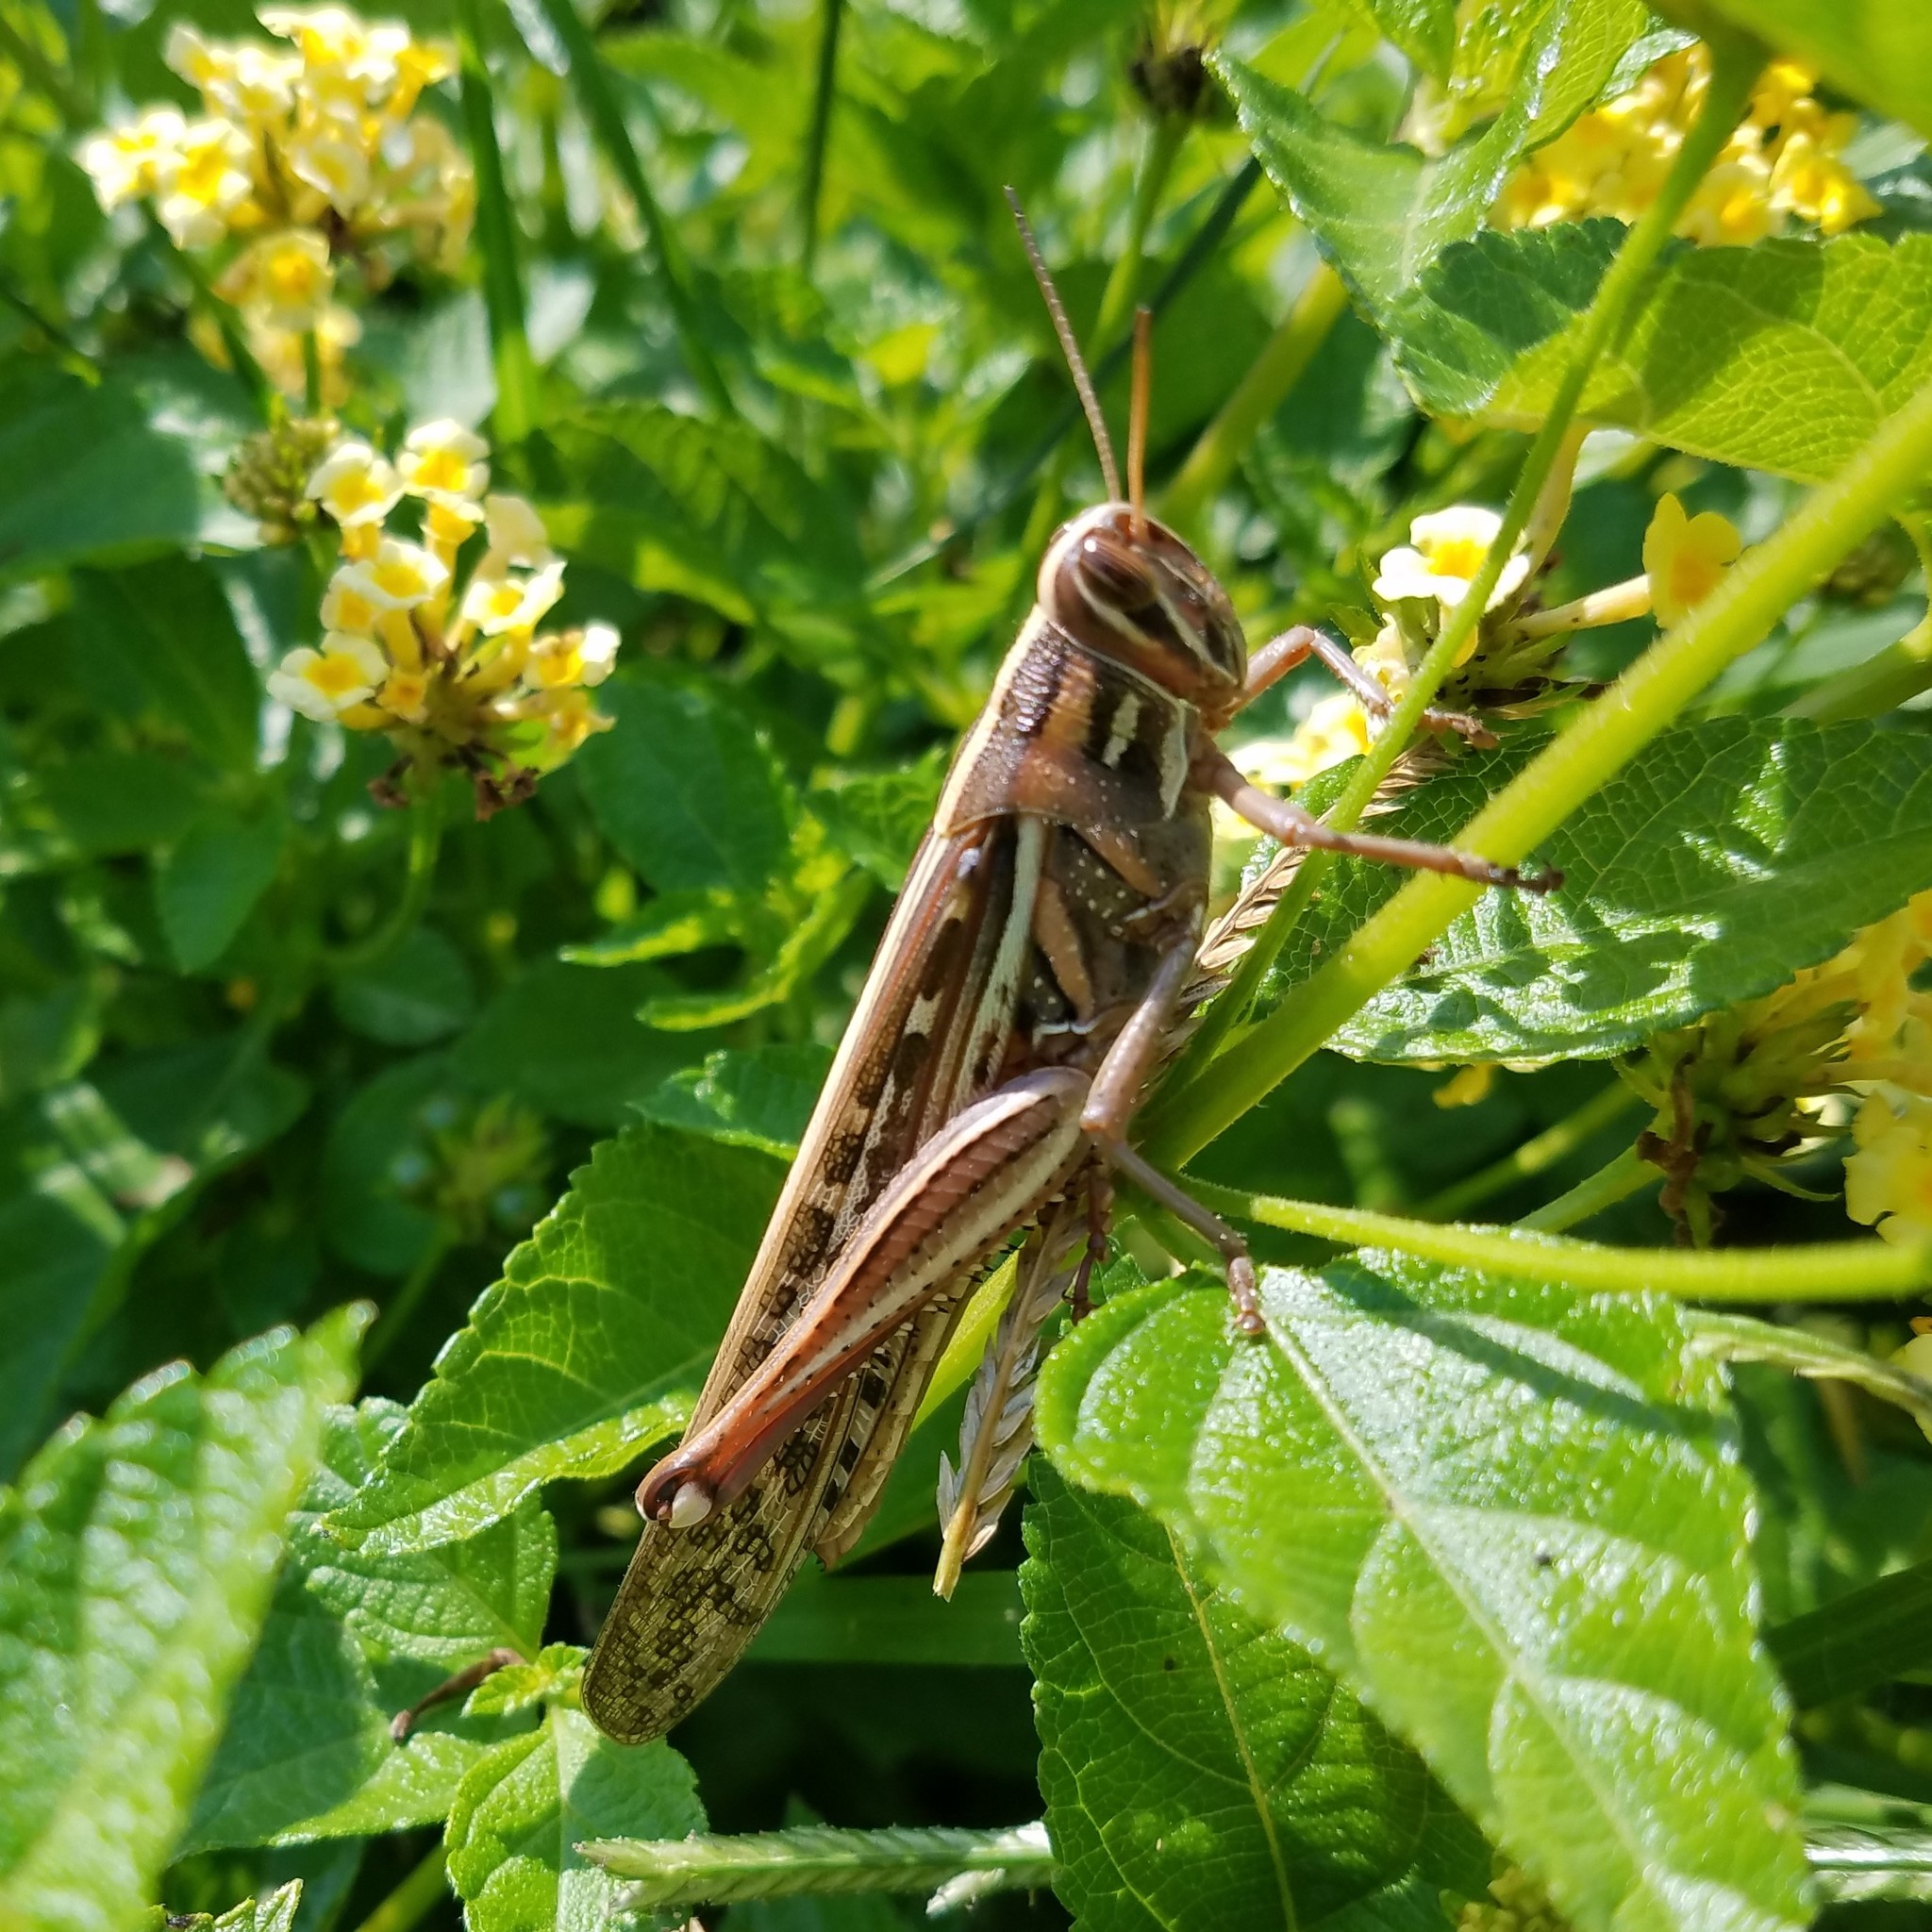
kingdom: Animalia
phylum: Arthropoda
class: Insecta
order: Orthoptera
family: Acrididae
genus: Schistocerca
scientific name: Schistocerca americana
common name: American bird locust
